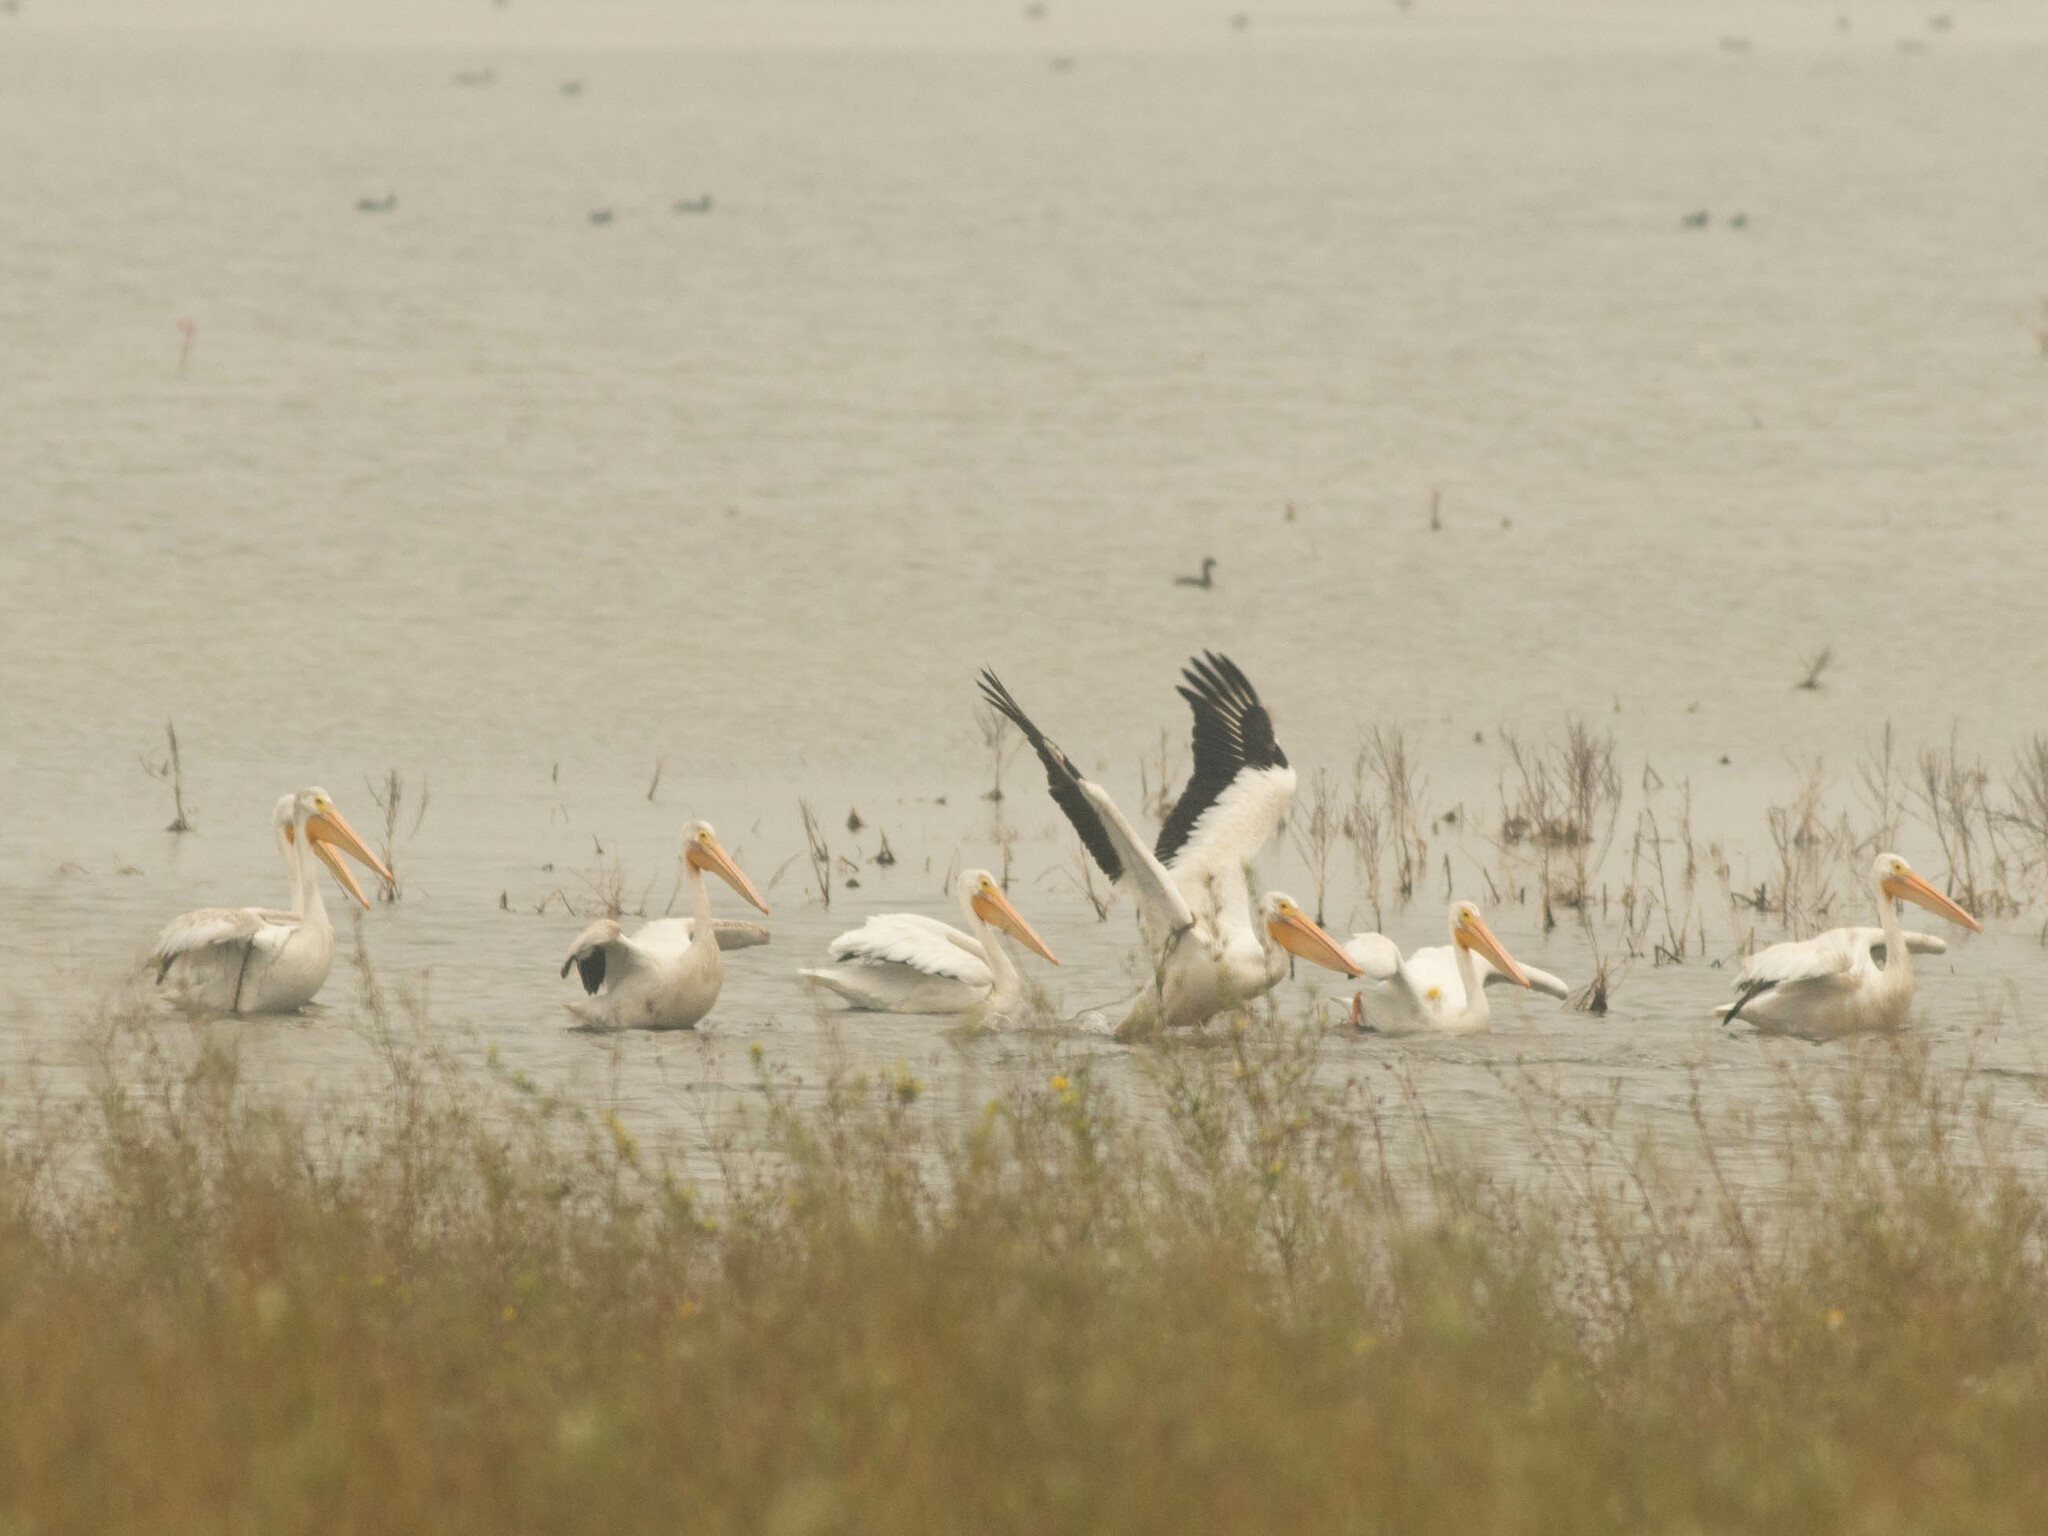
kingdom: Animalia
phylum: Chordata
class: Aves
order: Pelecaniformes
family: Pelecanidae
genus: Pelecanus
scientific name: Pelecanus erythrorhynchos
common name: American white pelican
